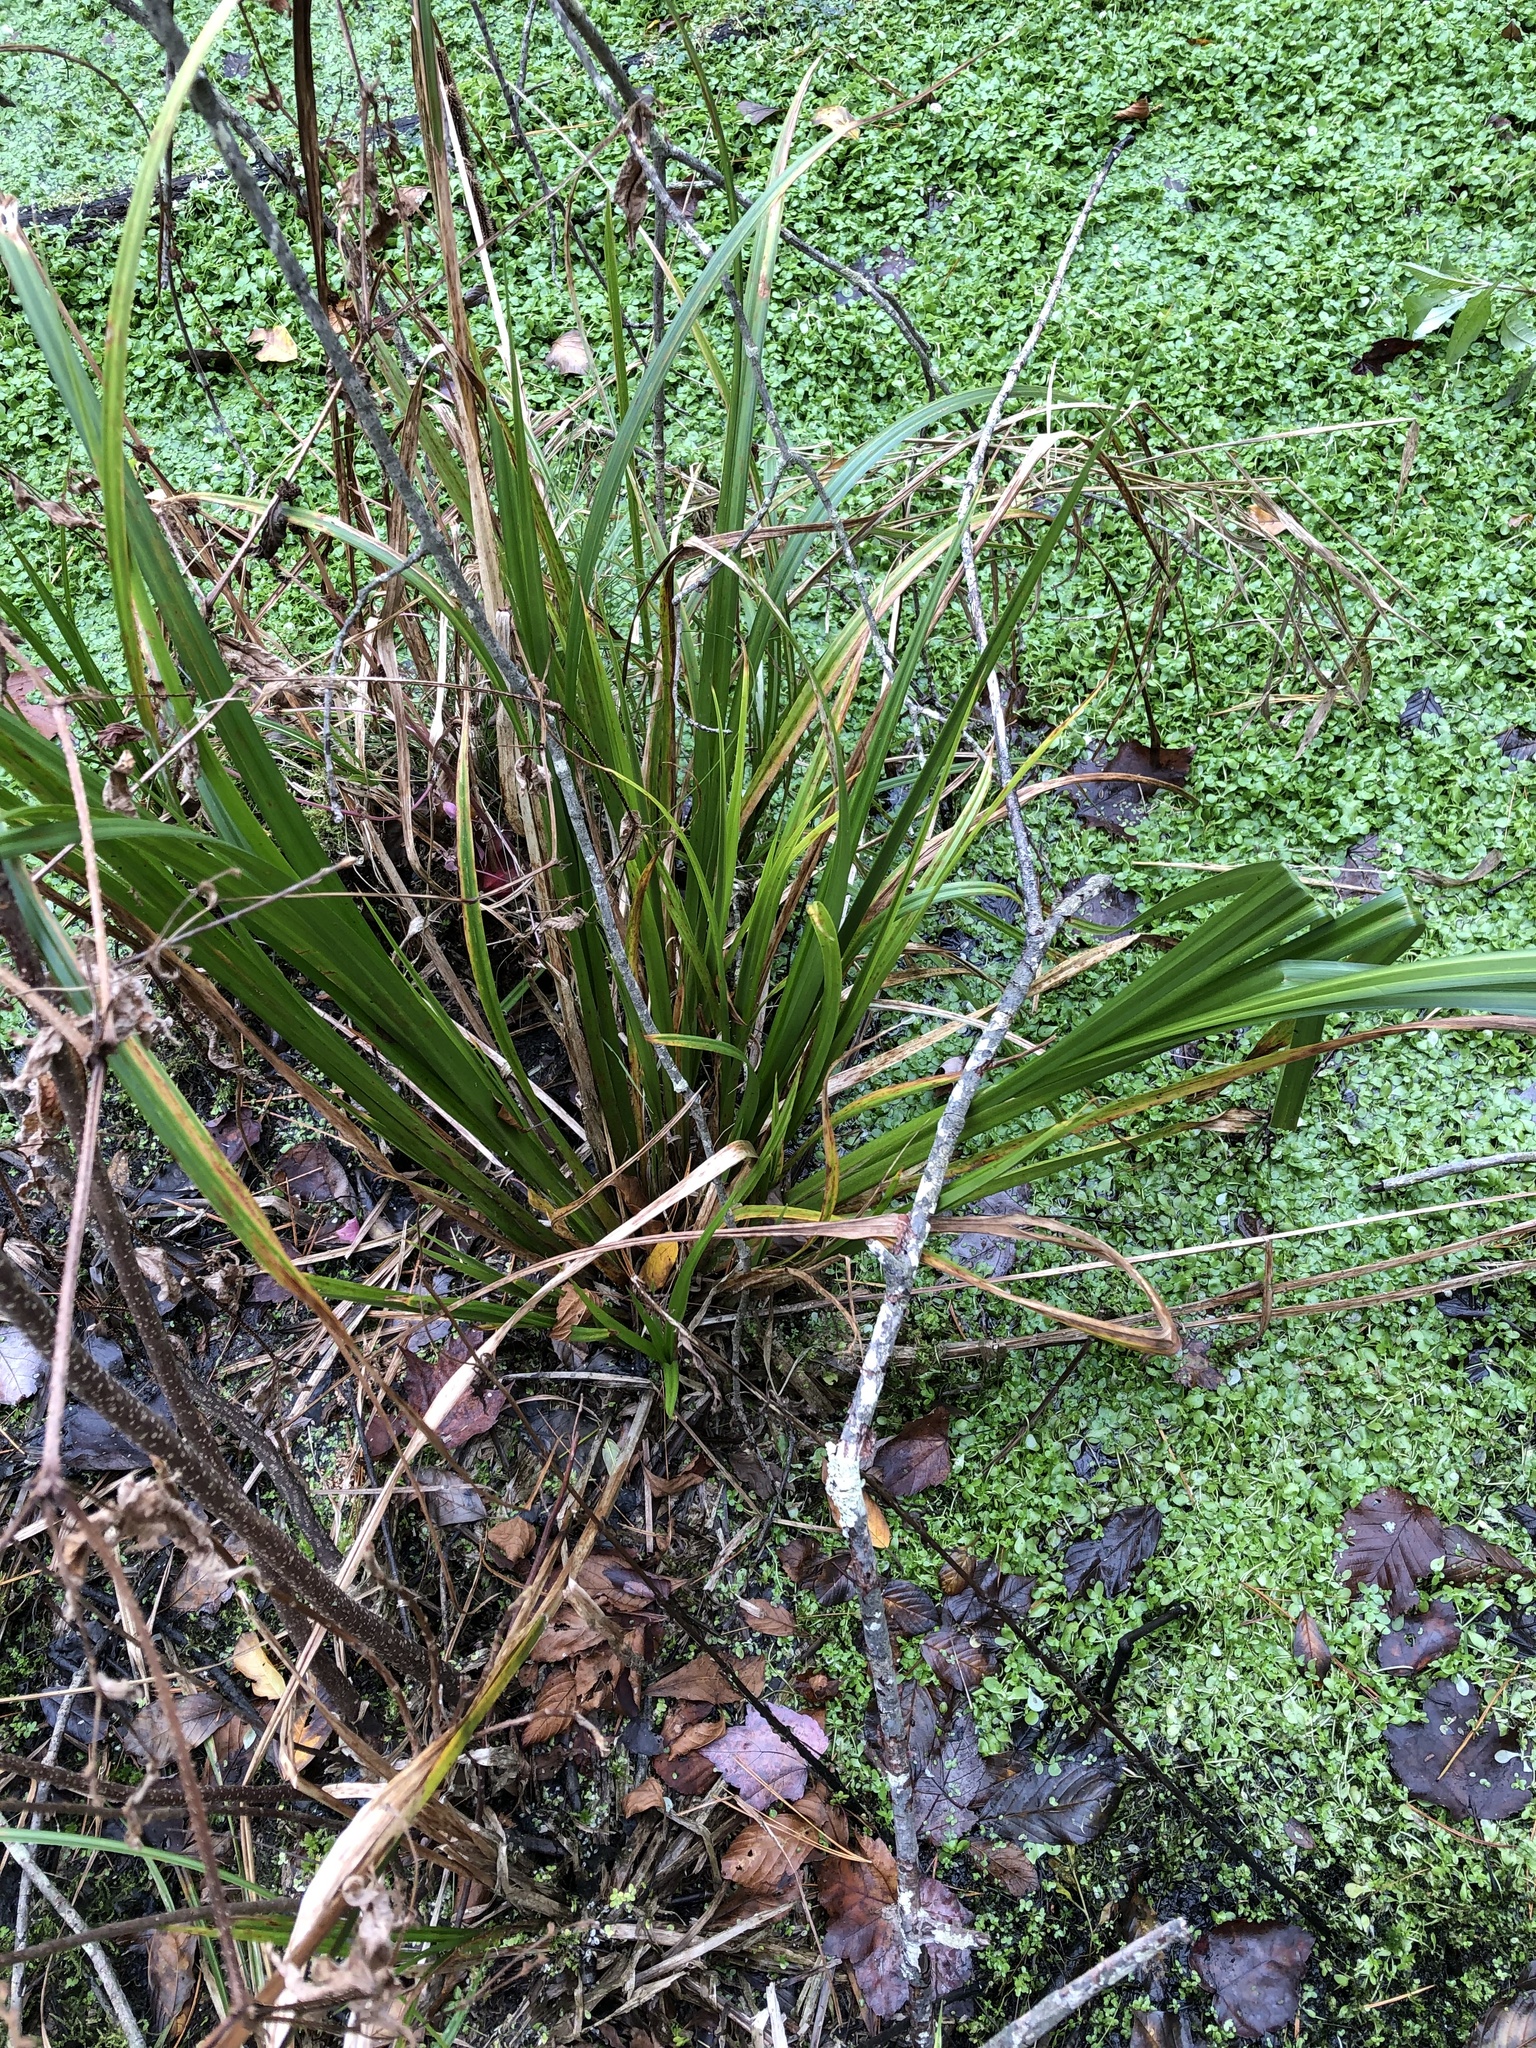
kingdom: Plantae
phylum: Tracheophyta
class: Liliopsida
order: Asparagales
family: Iridaceae
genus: Iris
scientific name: Iris pseudacorus
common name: Yellow flag
